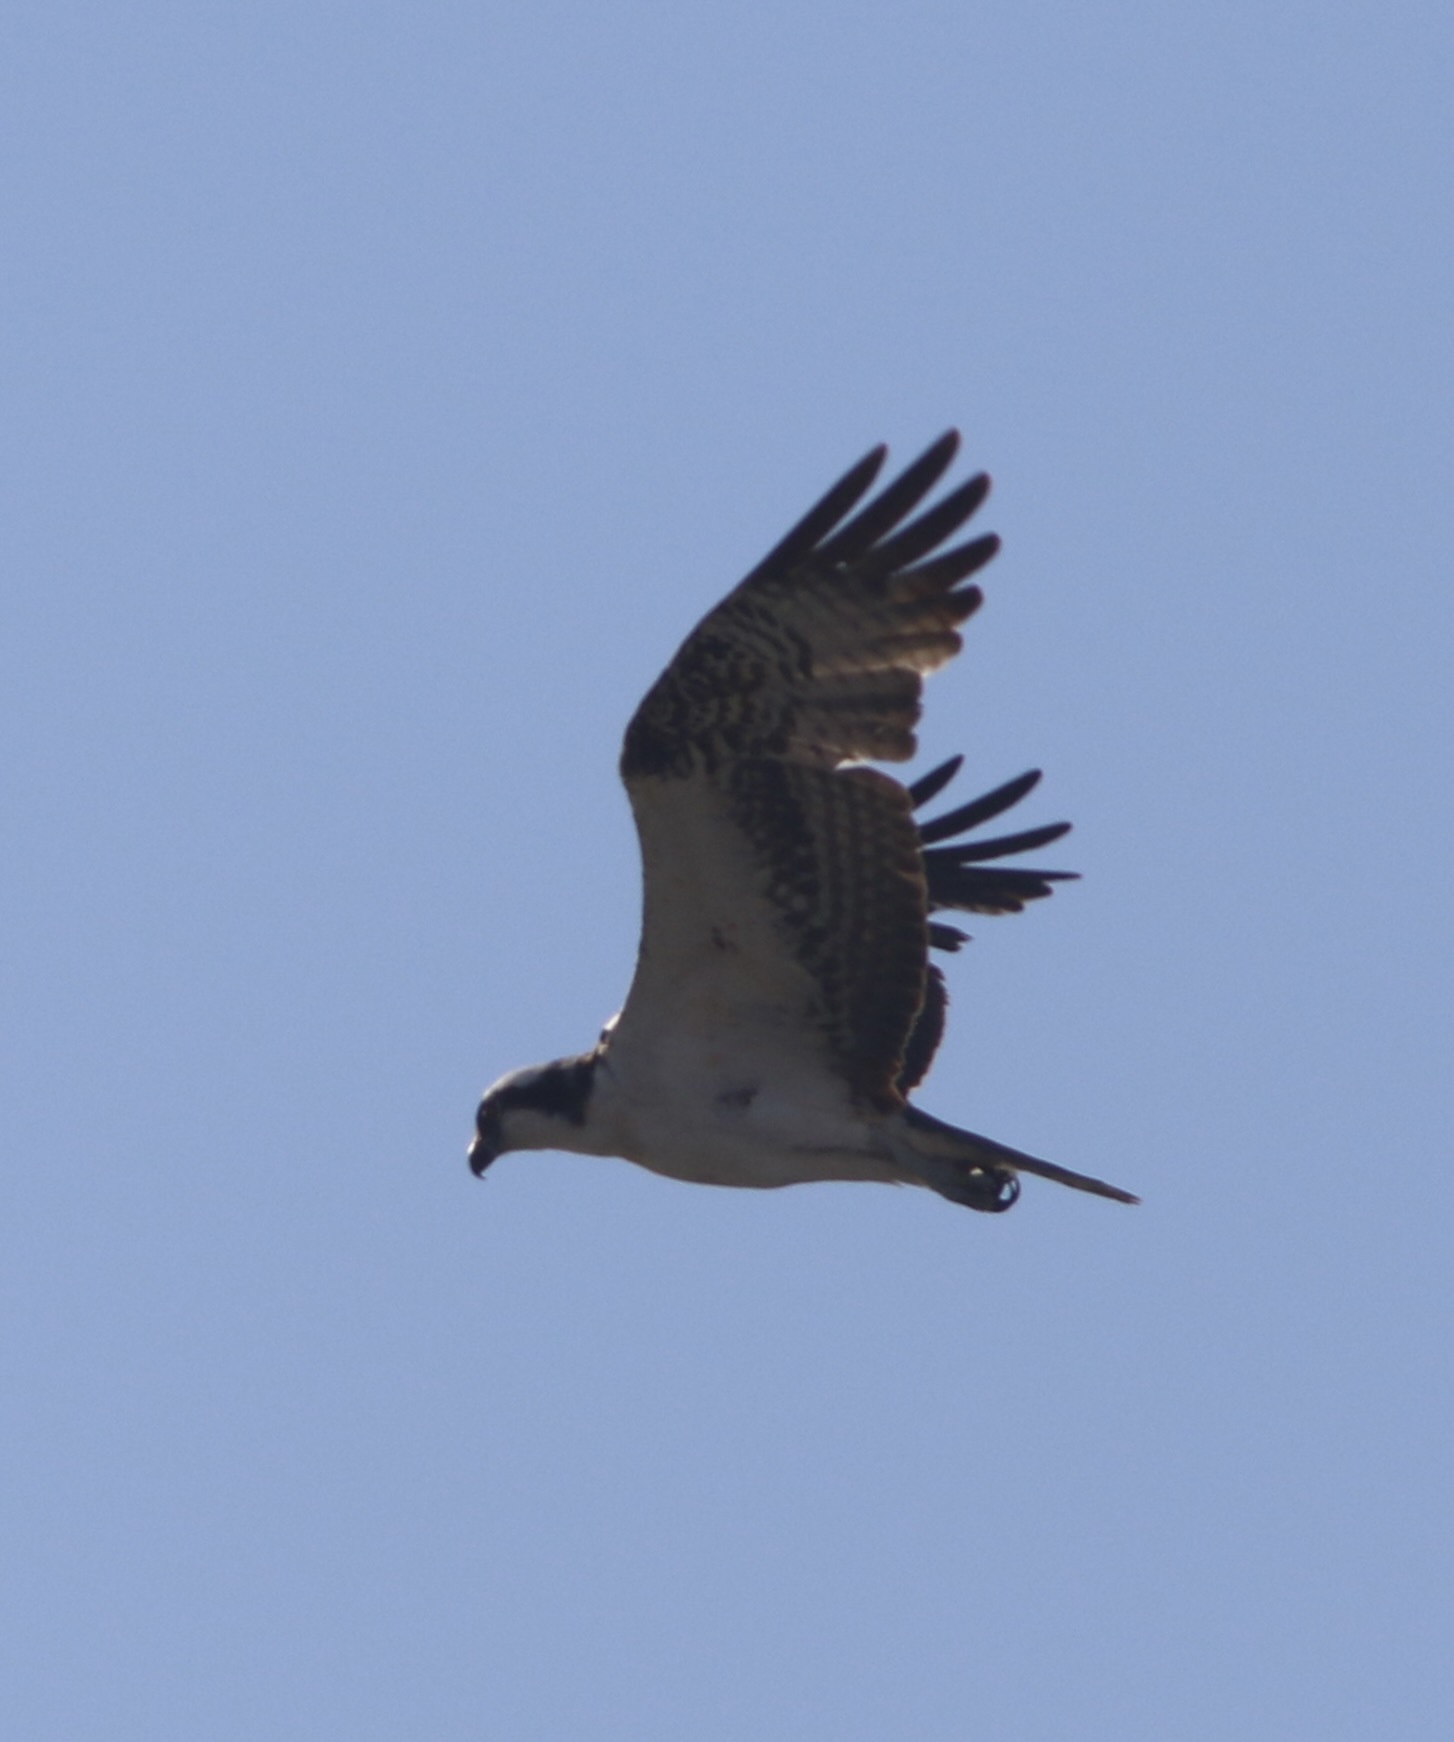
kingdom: Animalia
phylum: Chordata
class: Aves
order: Accipitriformes
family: Pandionidae
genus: Pandion
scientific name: Pandion haliaetus
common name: Osprey
